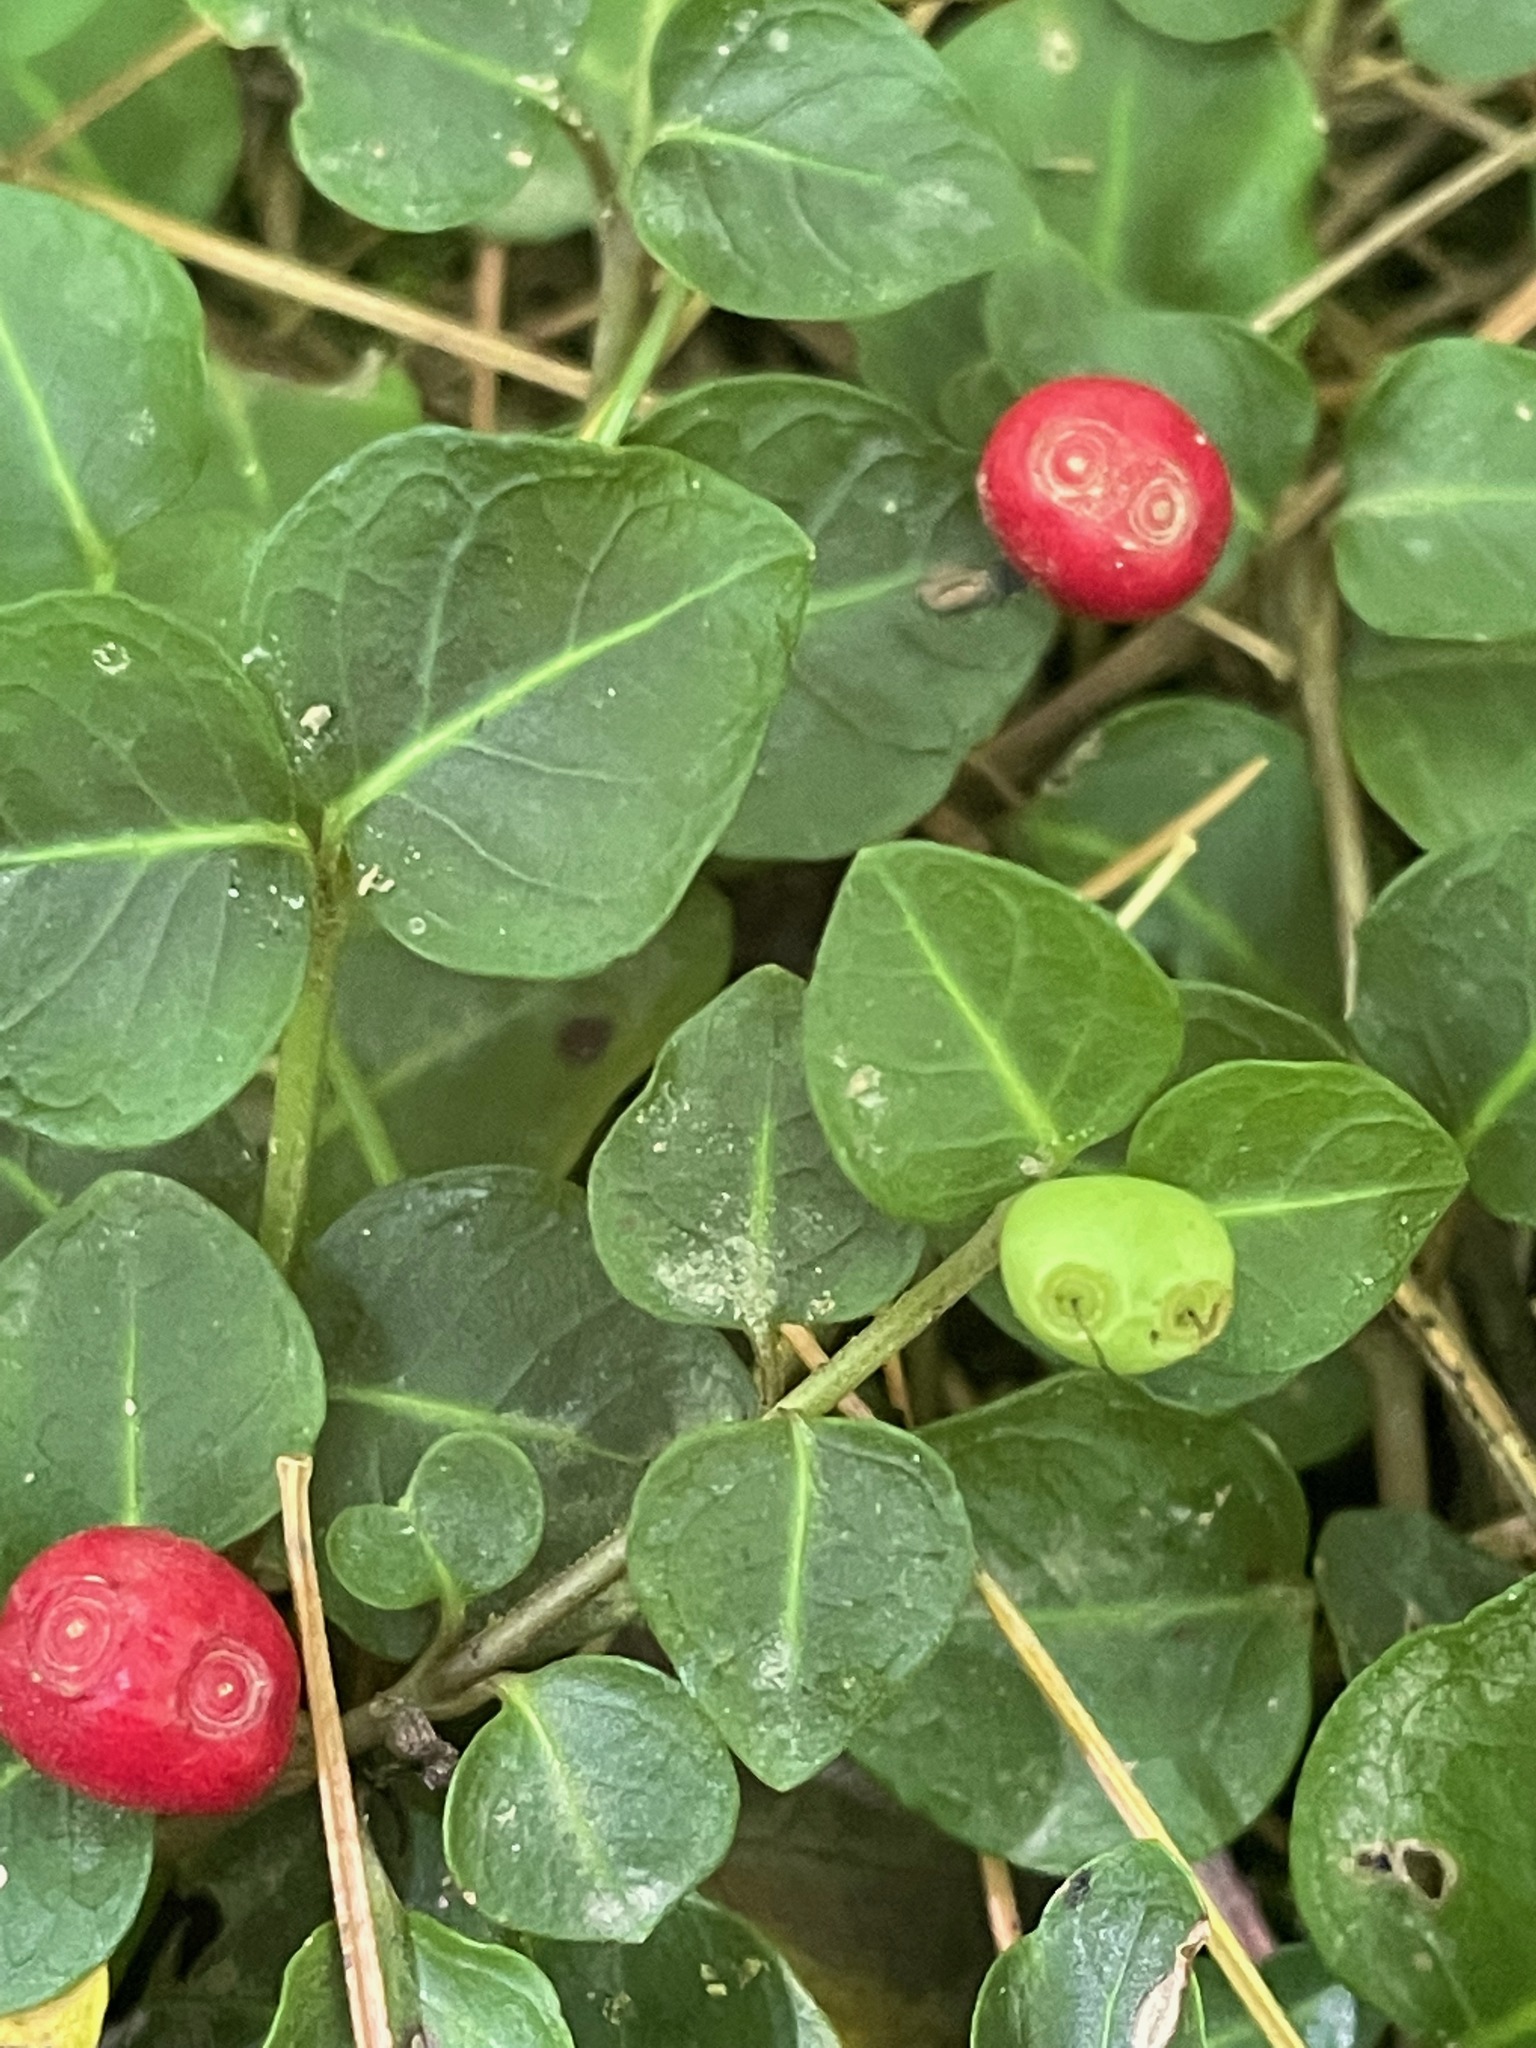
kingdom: Plantae
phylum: Tracheophyta
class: Magnoliopsida
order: Gentianales
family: Rubiaceae
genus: Mitchella
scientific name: Mitchella repens
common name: Partridge-berry
